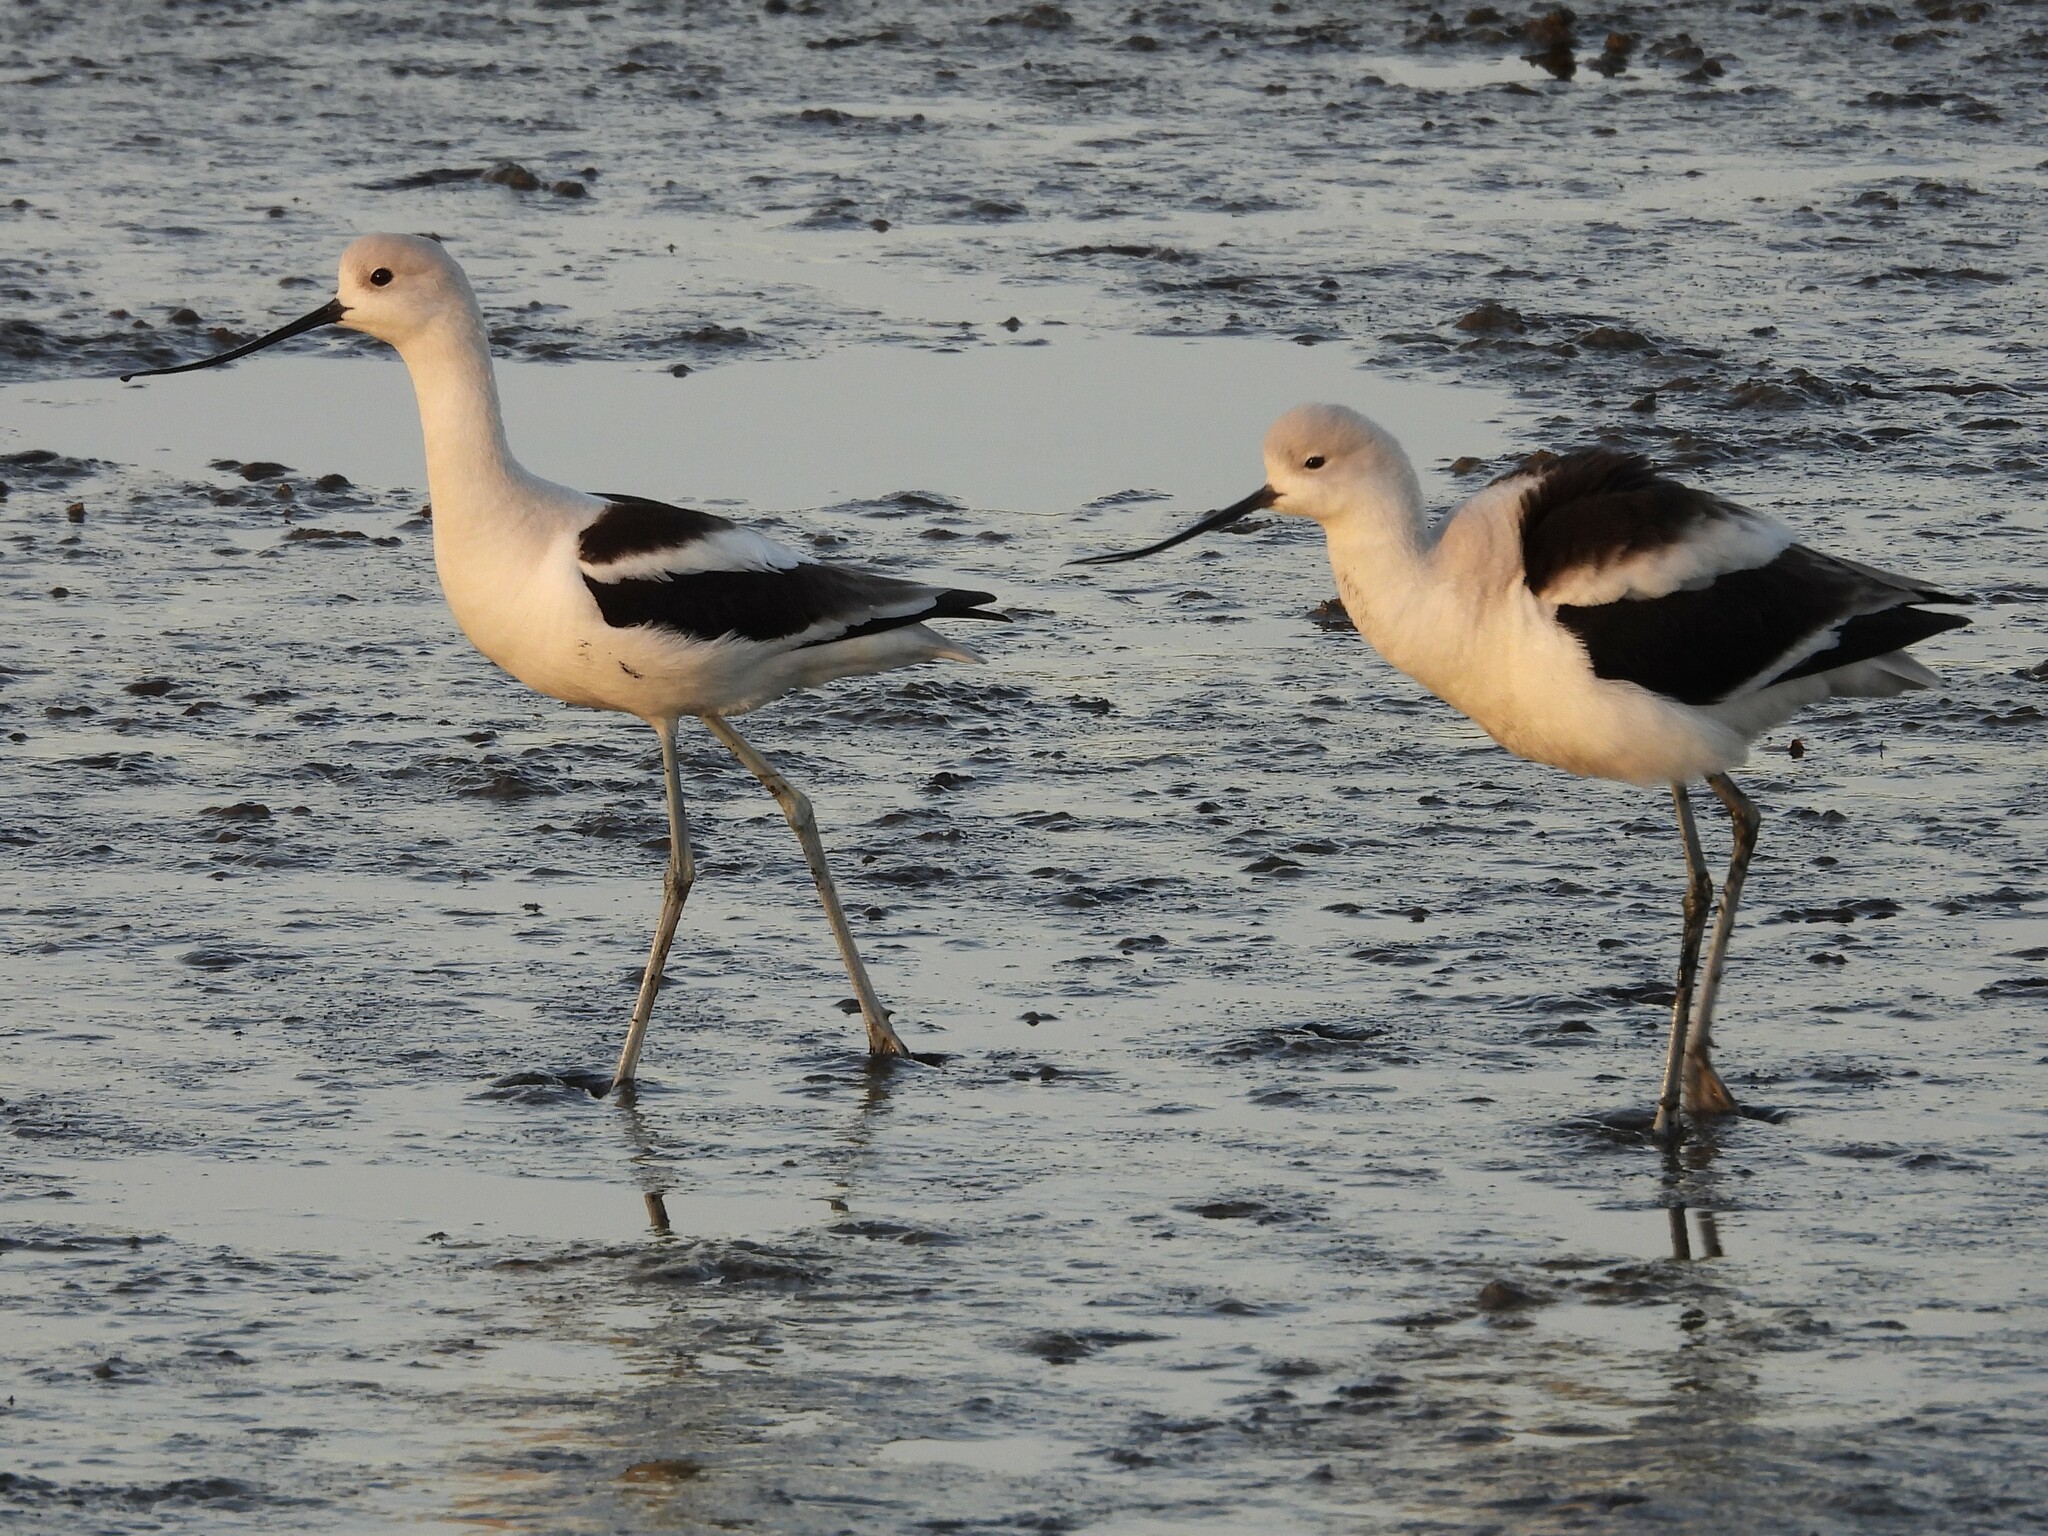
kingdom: Animalia
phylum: Chordata
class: Aves
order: Charadriiformes
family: Recurvirostridae
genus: Recurvirostra
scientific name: Recurvirostra americana
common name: American avocet
